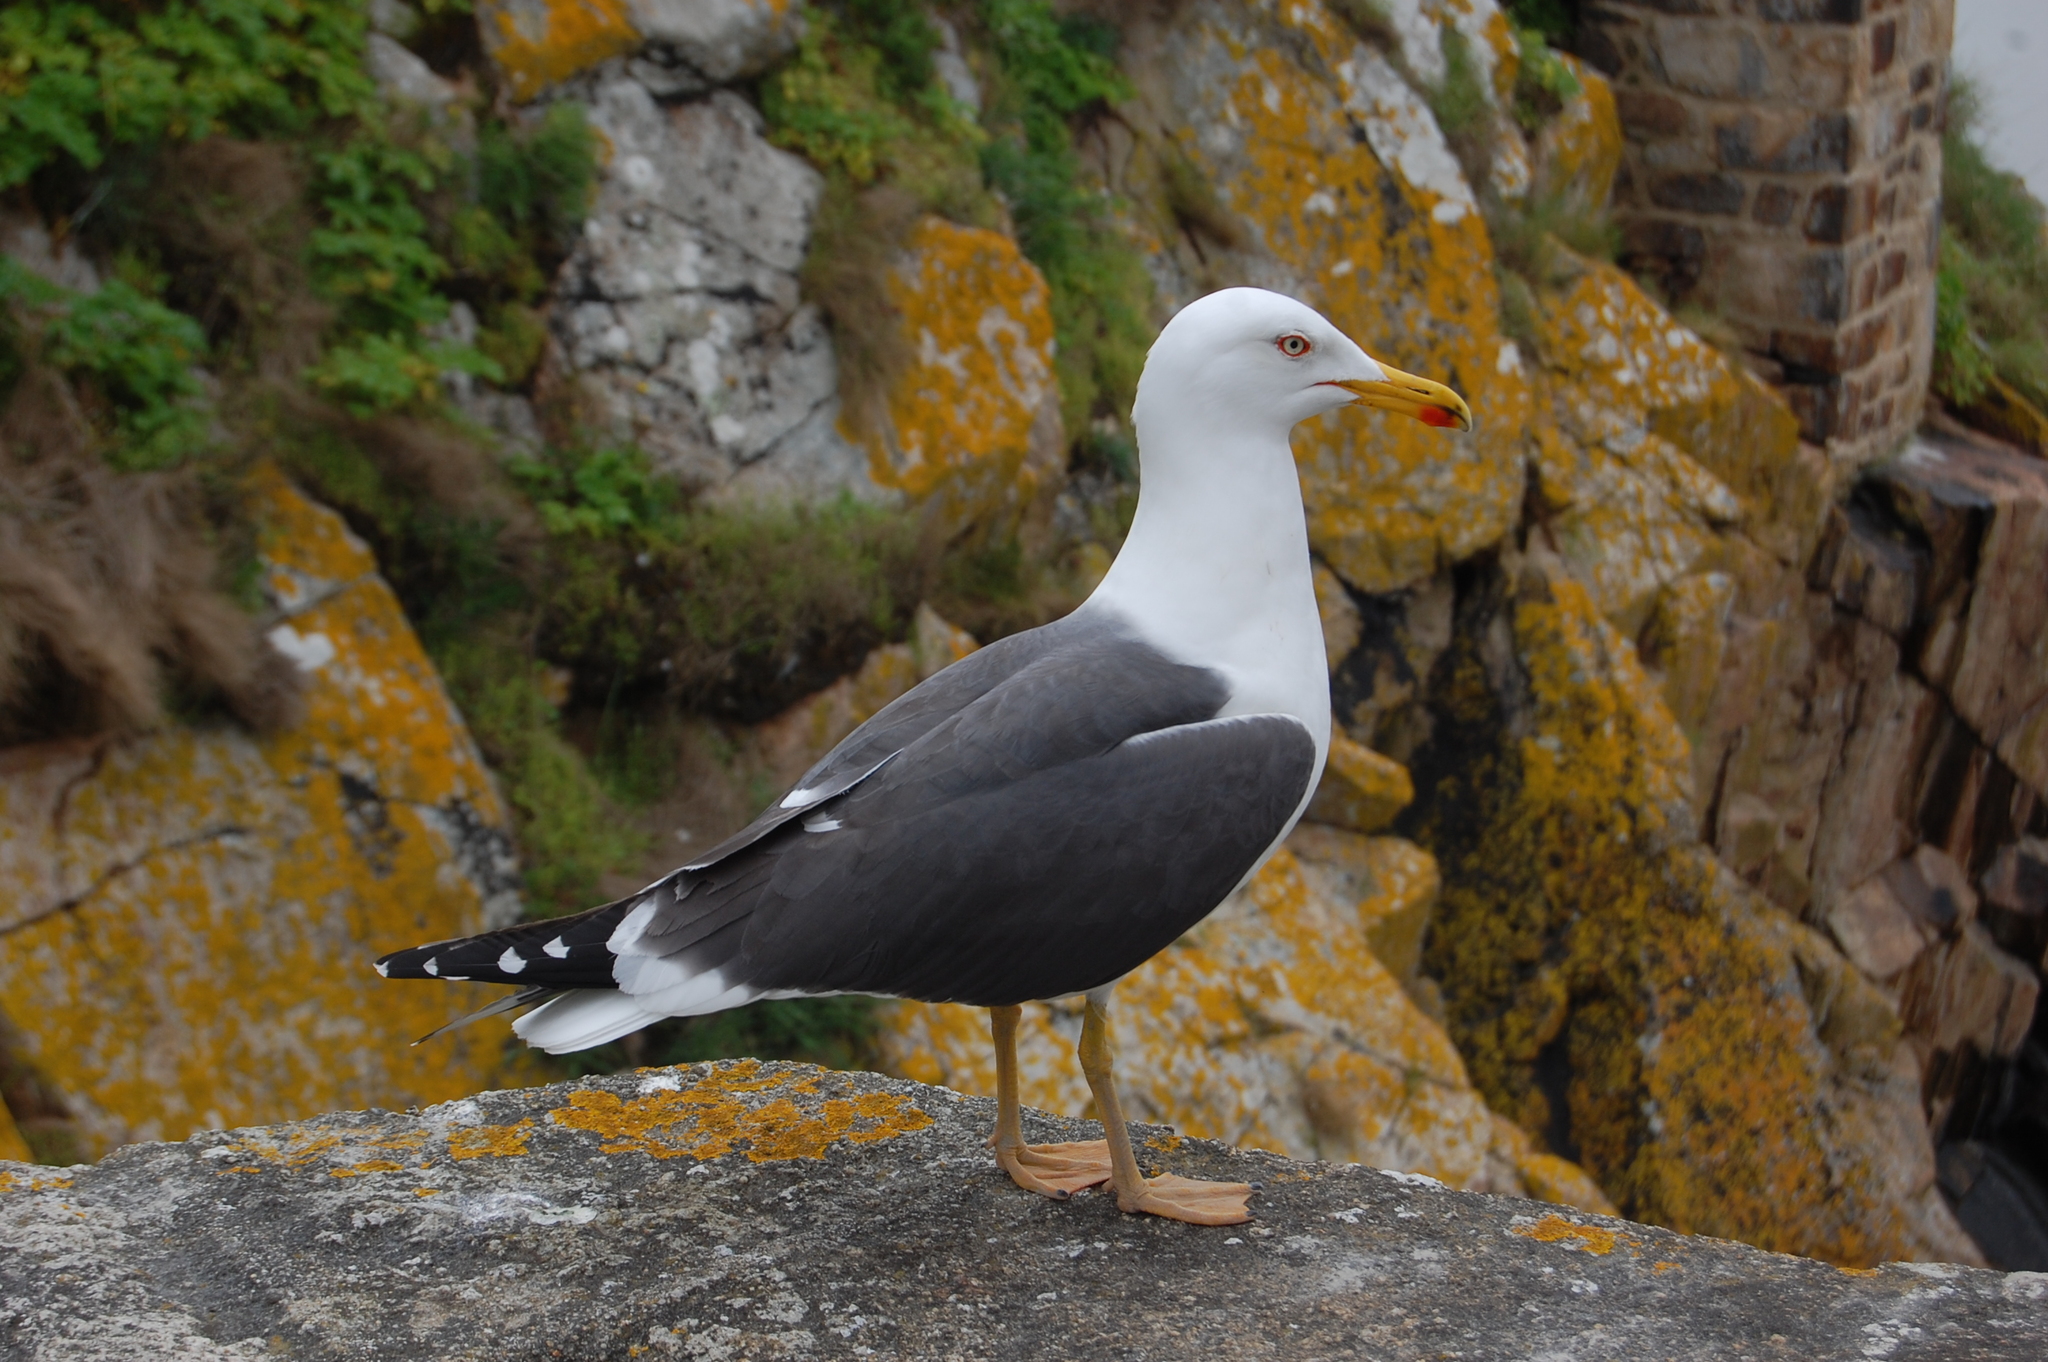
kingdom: Animalia
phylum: Chordata
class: Aves
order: Charadriiformes
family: Laridae
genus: Larus
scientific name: Larus fuscus
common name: Lesser black-backed gull
